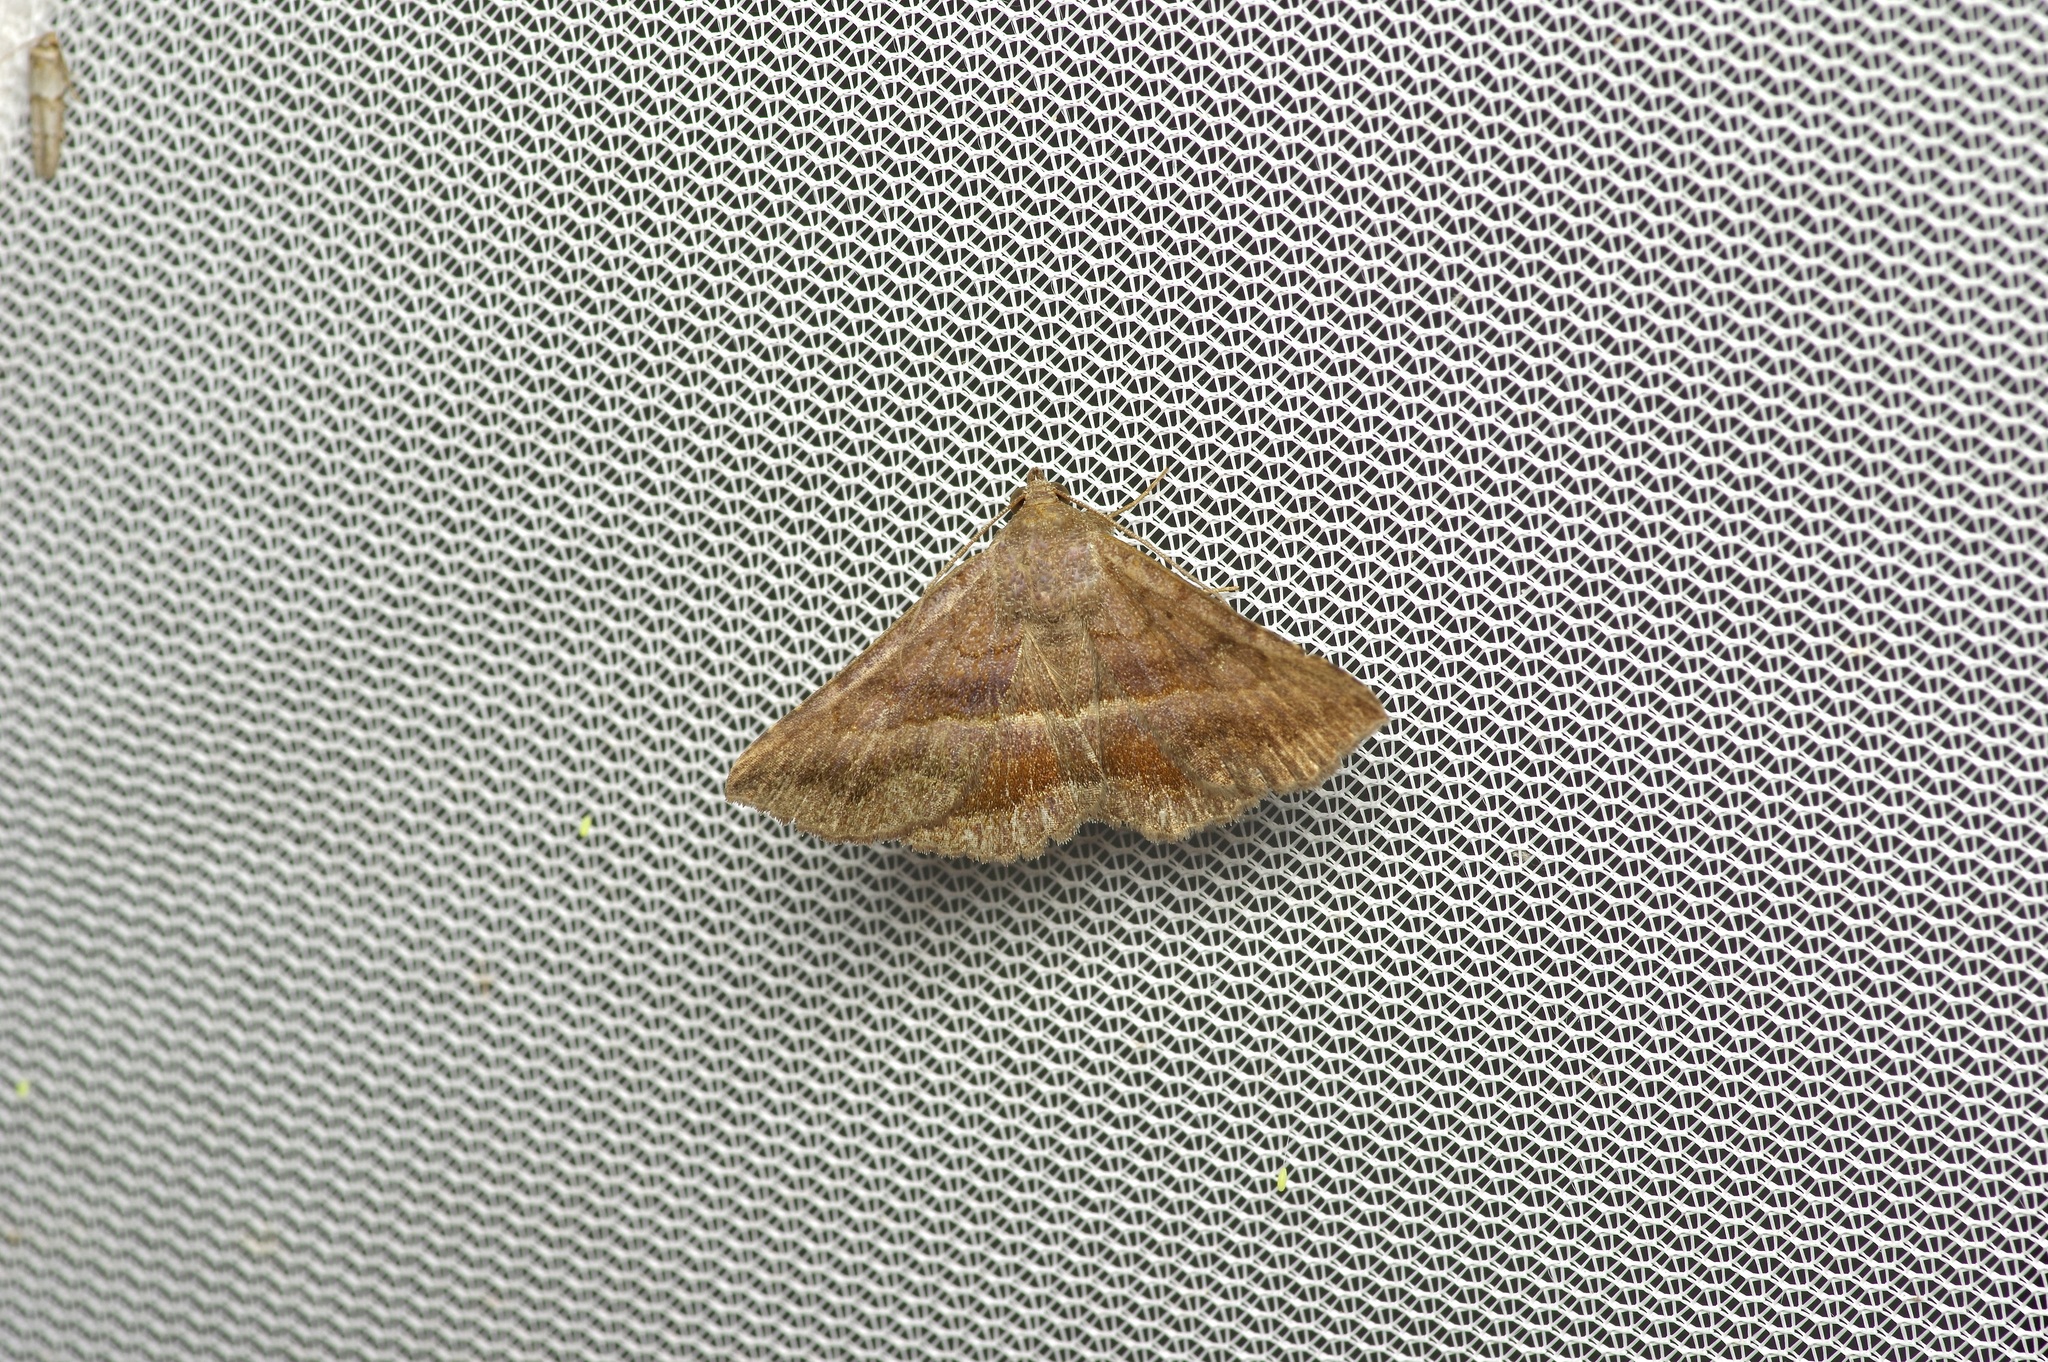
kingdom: Animalia
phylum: Arthropoda
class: Insecta
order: Lepidoptera
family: Erebidae
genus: Lesmone
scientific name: Lesmone detrahens
